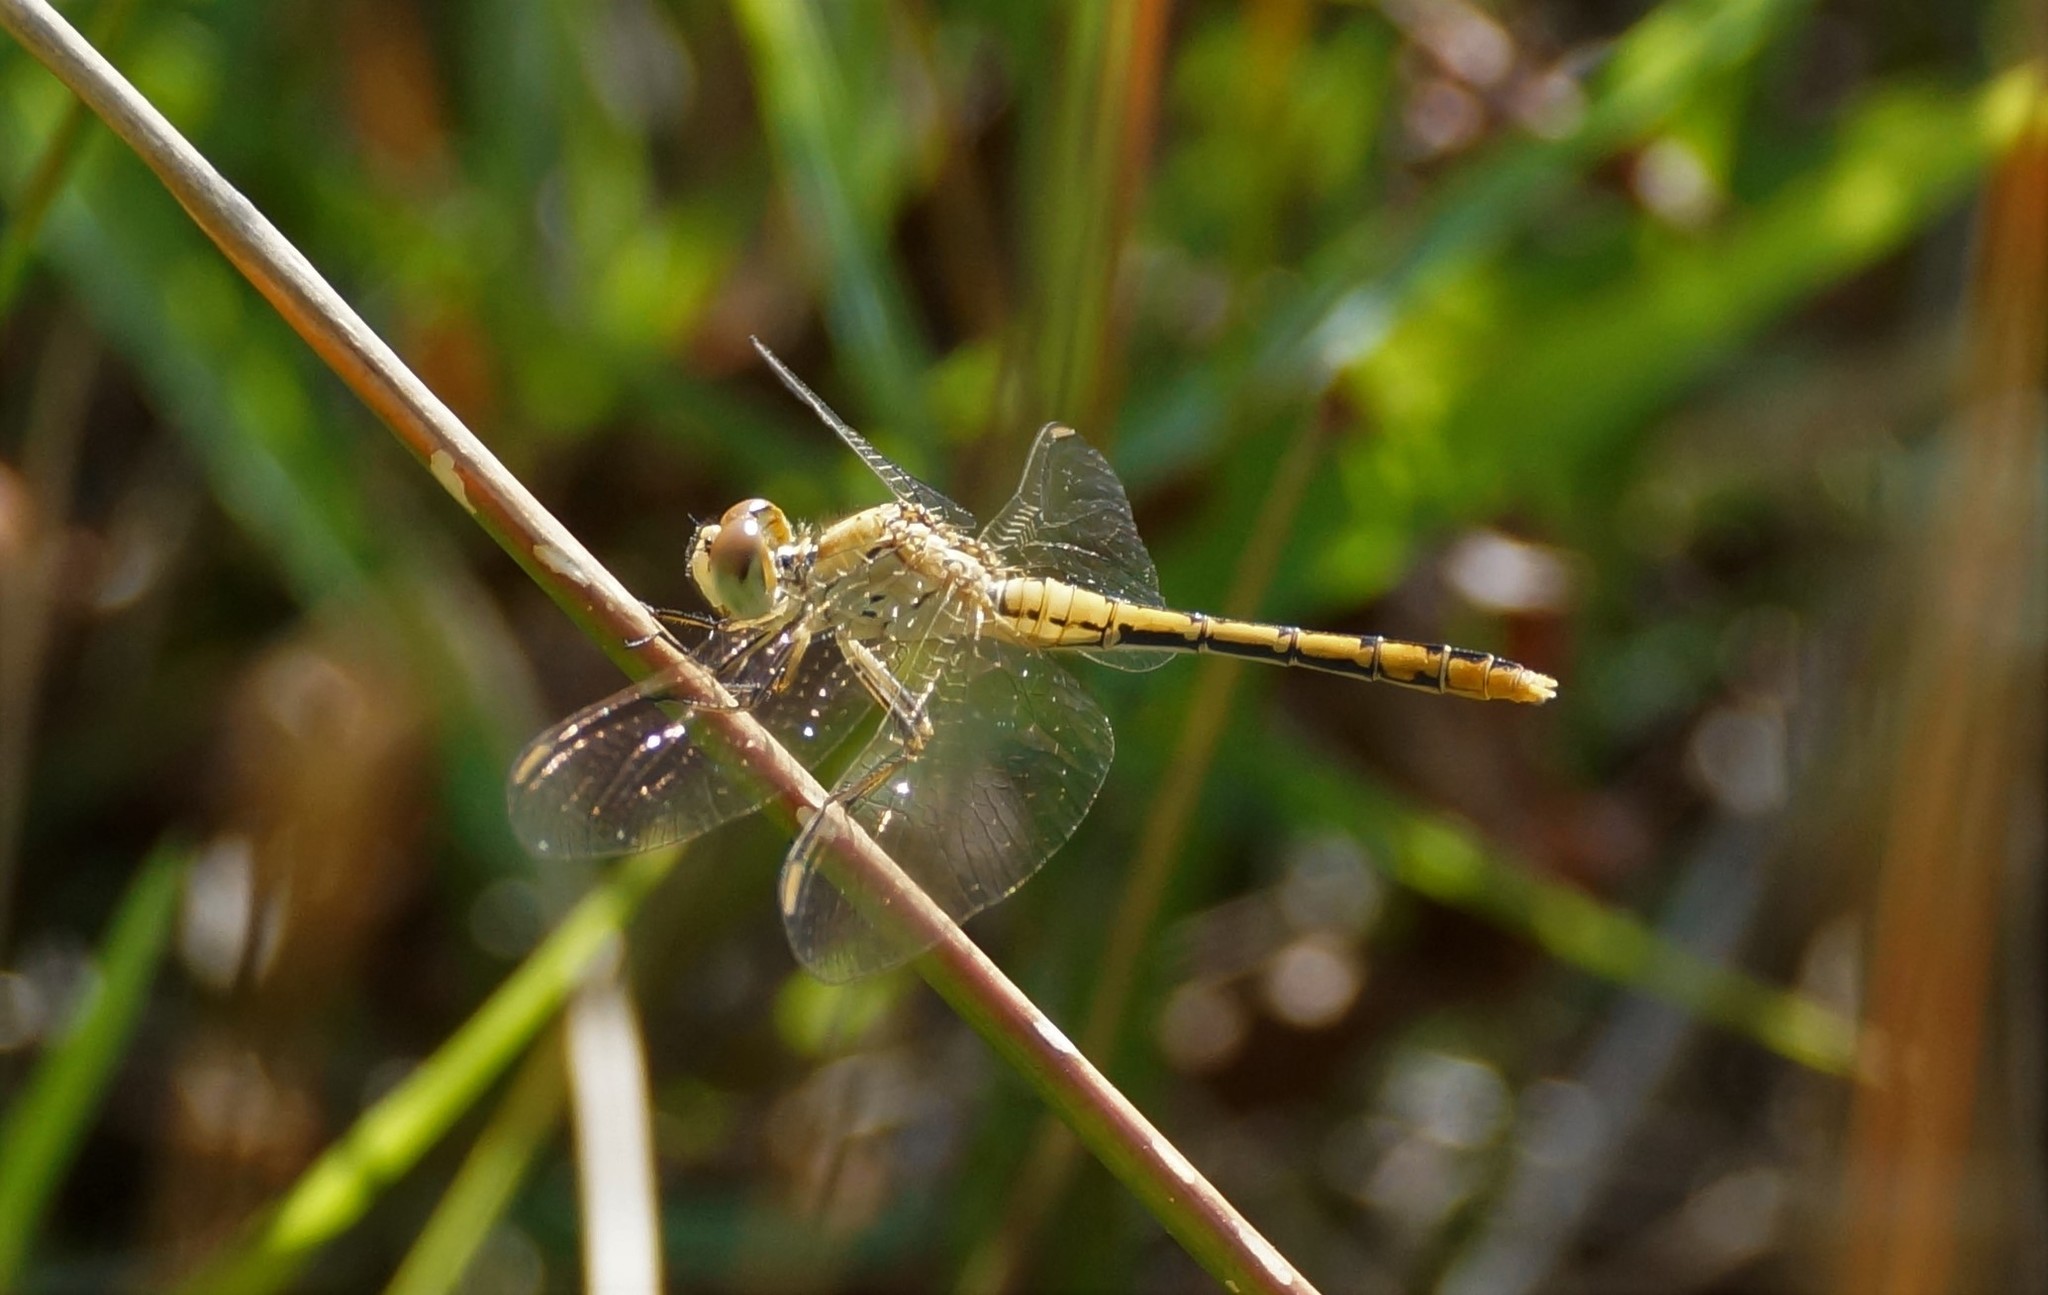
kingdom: Animalia
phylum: Arthropoda
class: Insecta
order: Odonata
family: Libellulidae
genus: Diplacodes
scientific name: Diplacodes bipunctata
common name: Red percher dragonfly
